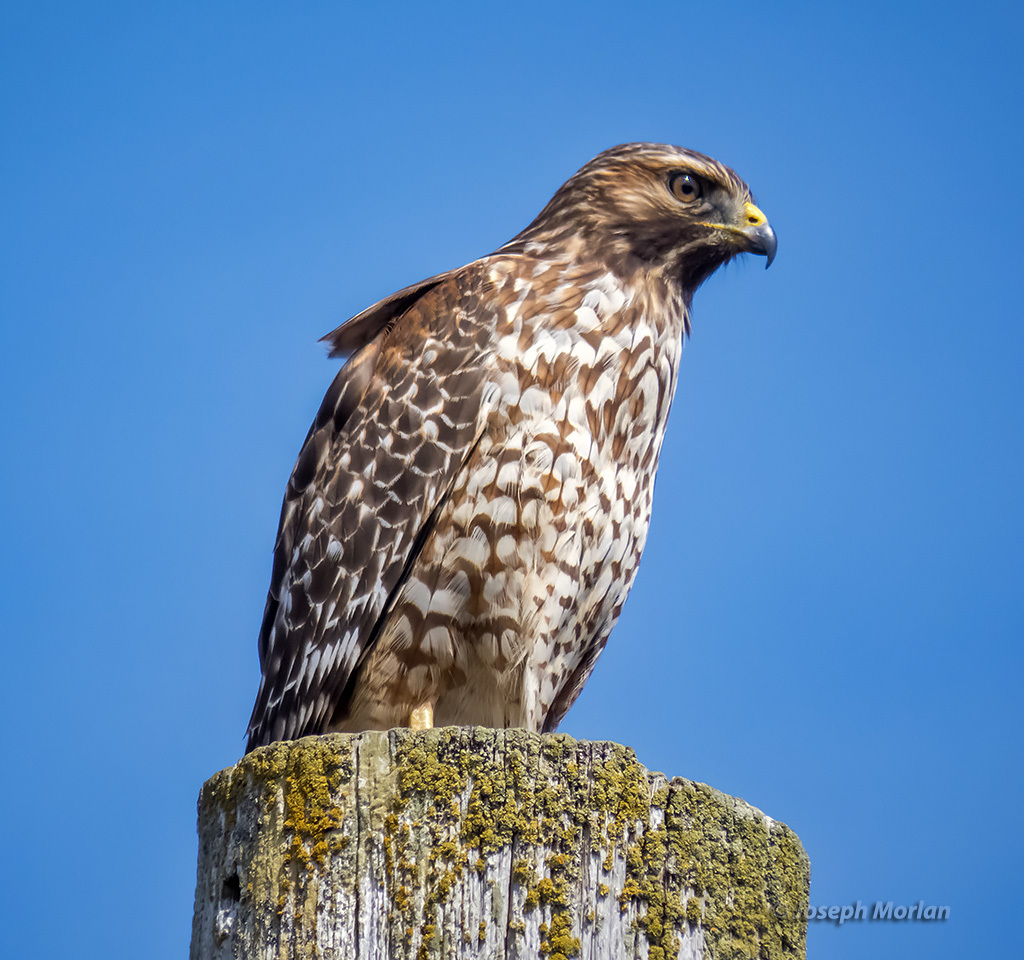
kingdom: Animalia
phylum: Chordata
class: Aves
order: Accipitriformes
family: Accipitridae
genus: Buteo
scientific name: Buteo lineatus
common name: Red-shouldered hawk
